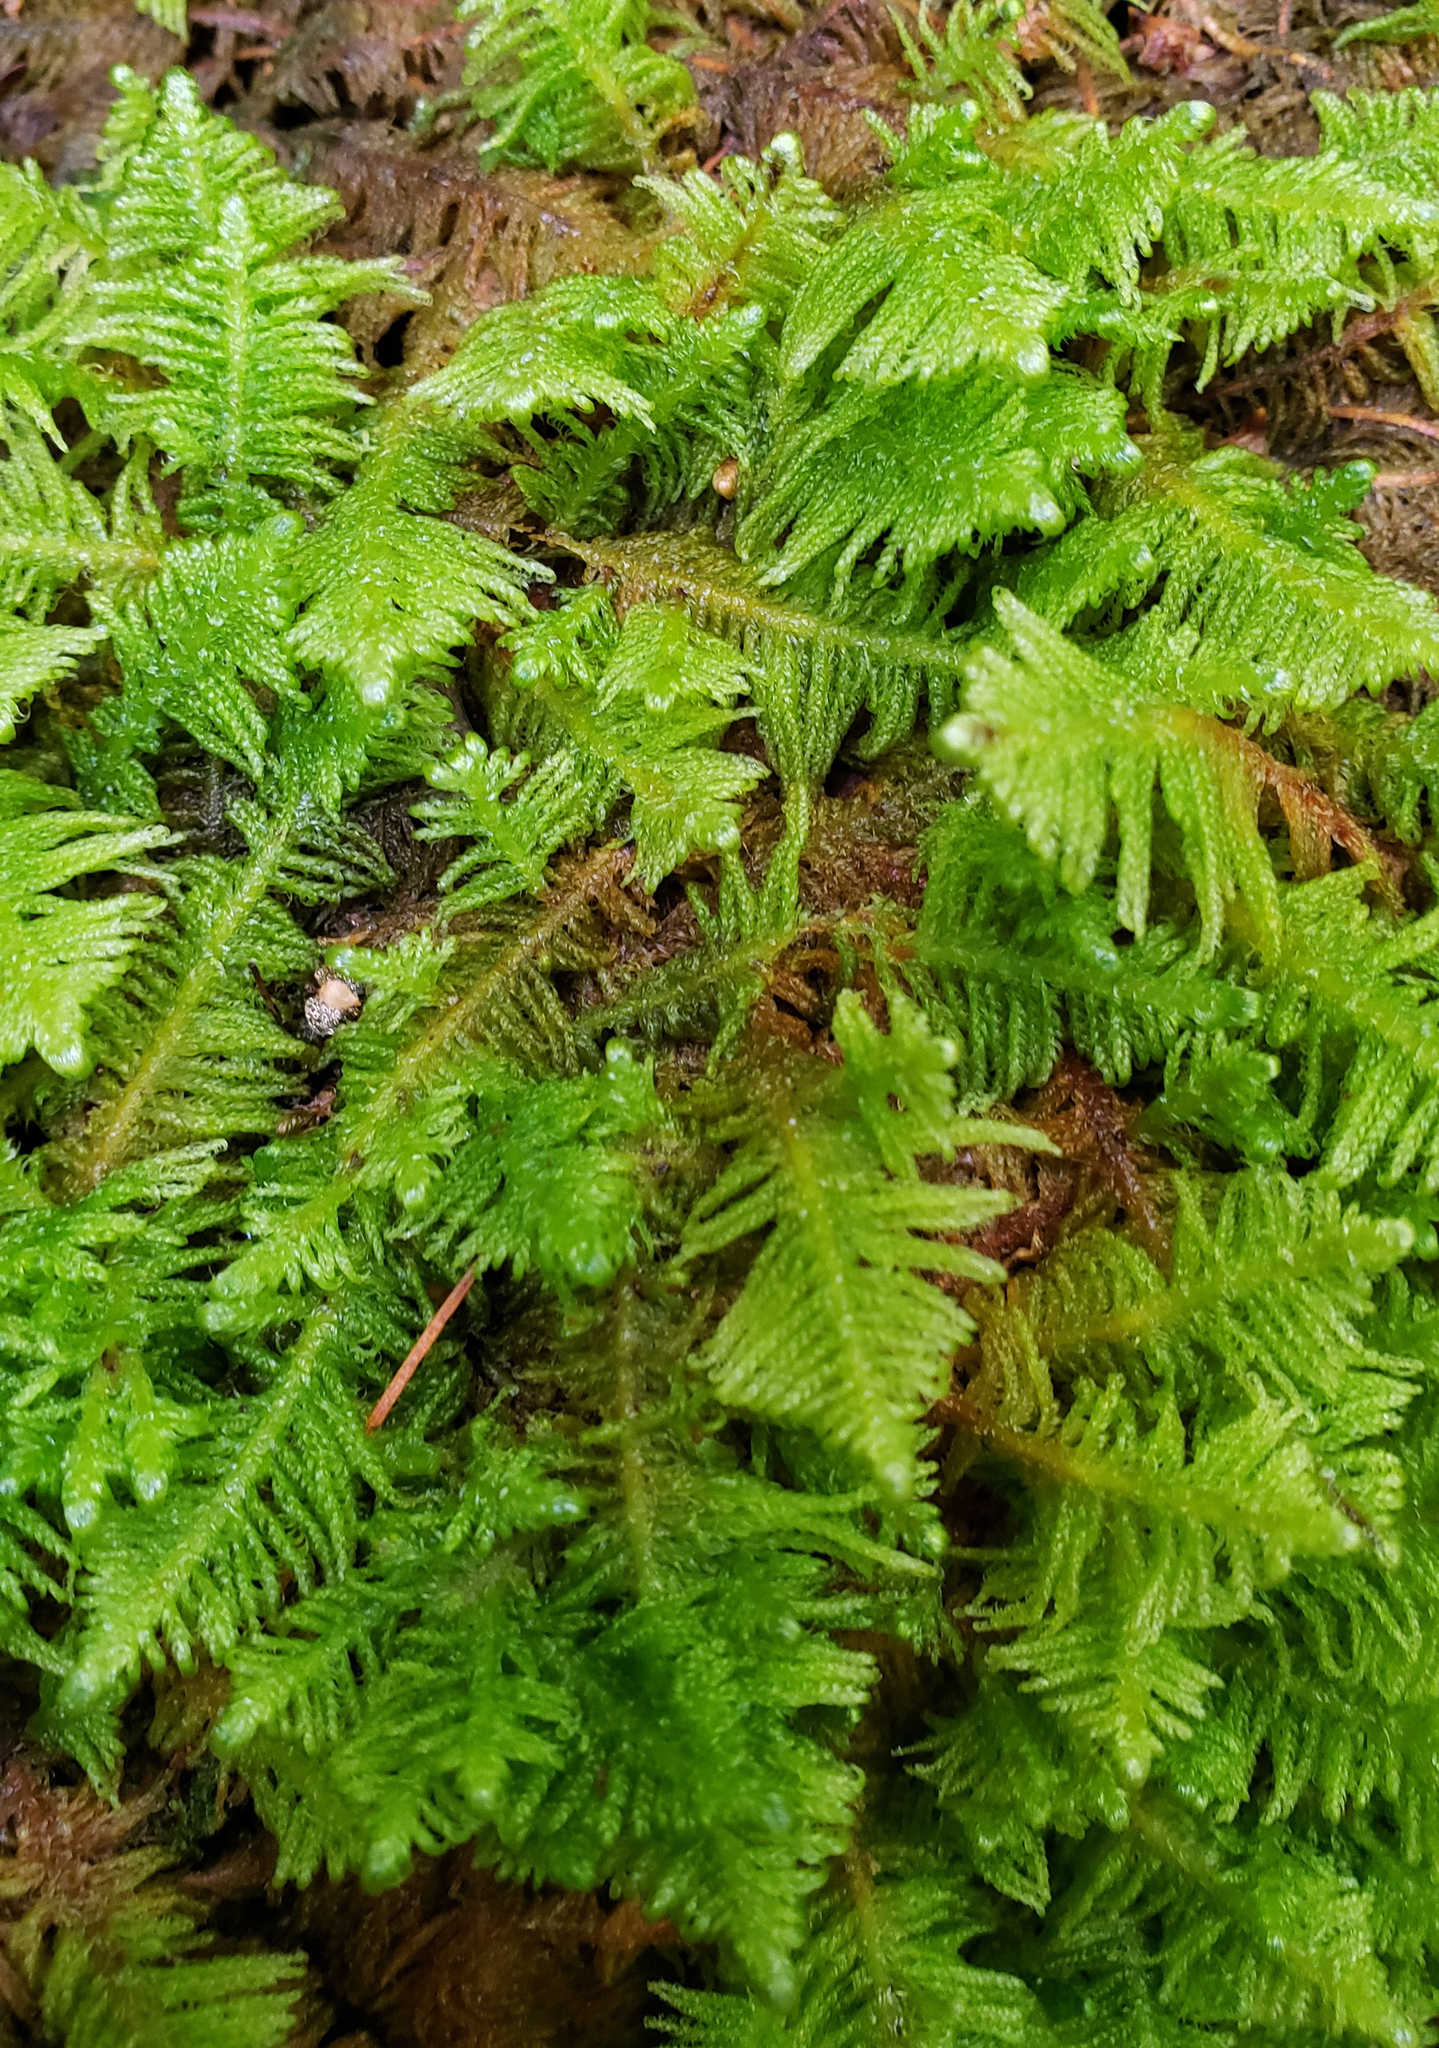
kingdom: Plantae
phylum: Bryophyta
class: Bryopsida
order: Hypnales
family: Pylaisiaceae
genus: Ptilium
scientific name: Ptilium crista-castrensis
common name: Knight's plume moss
